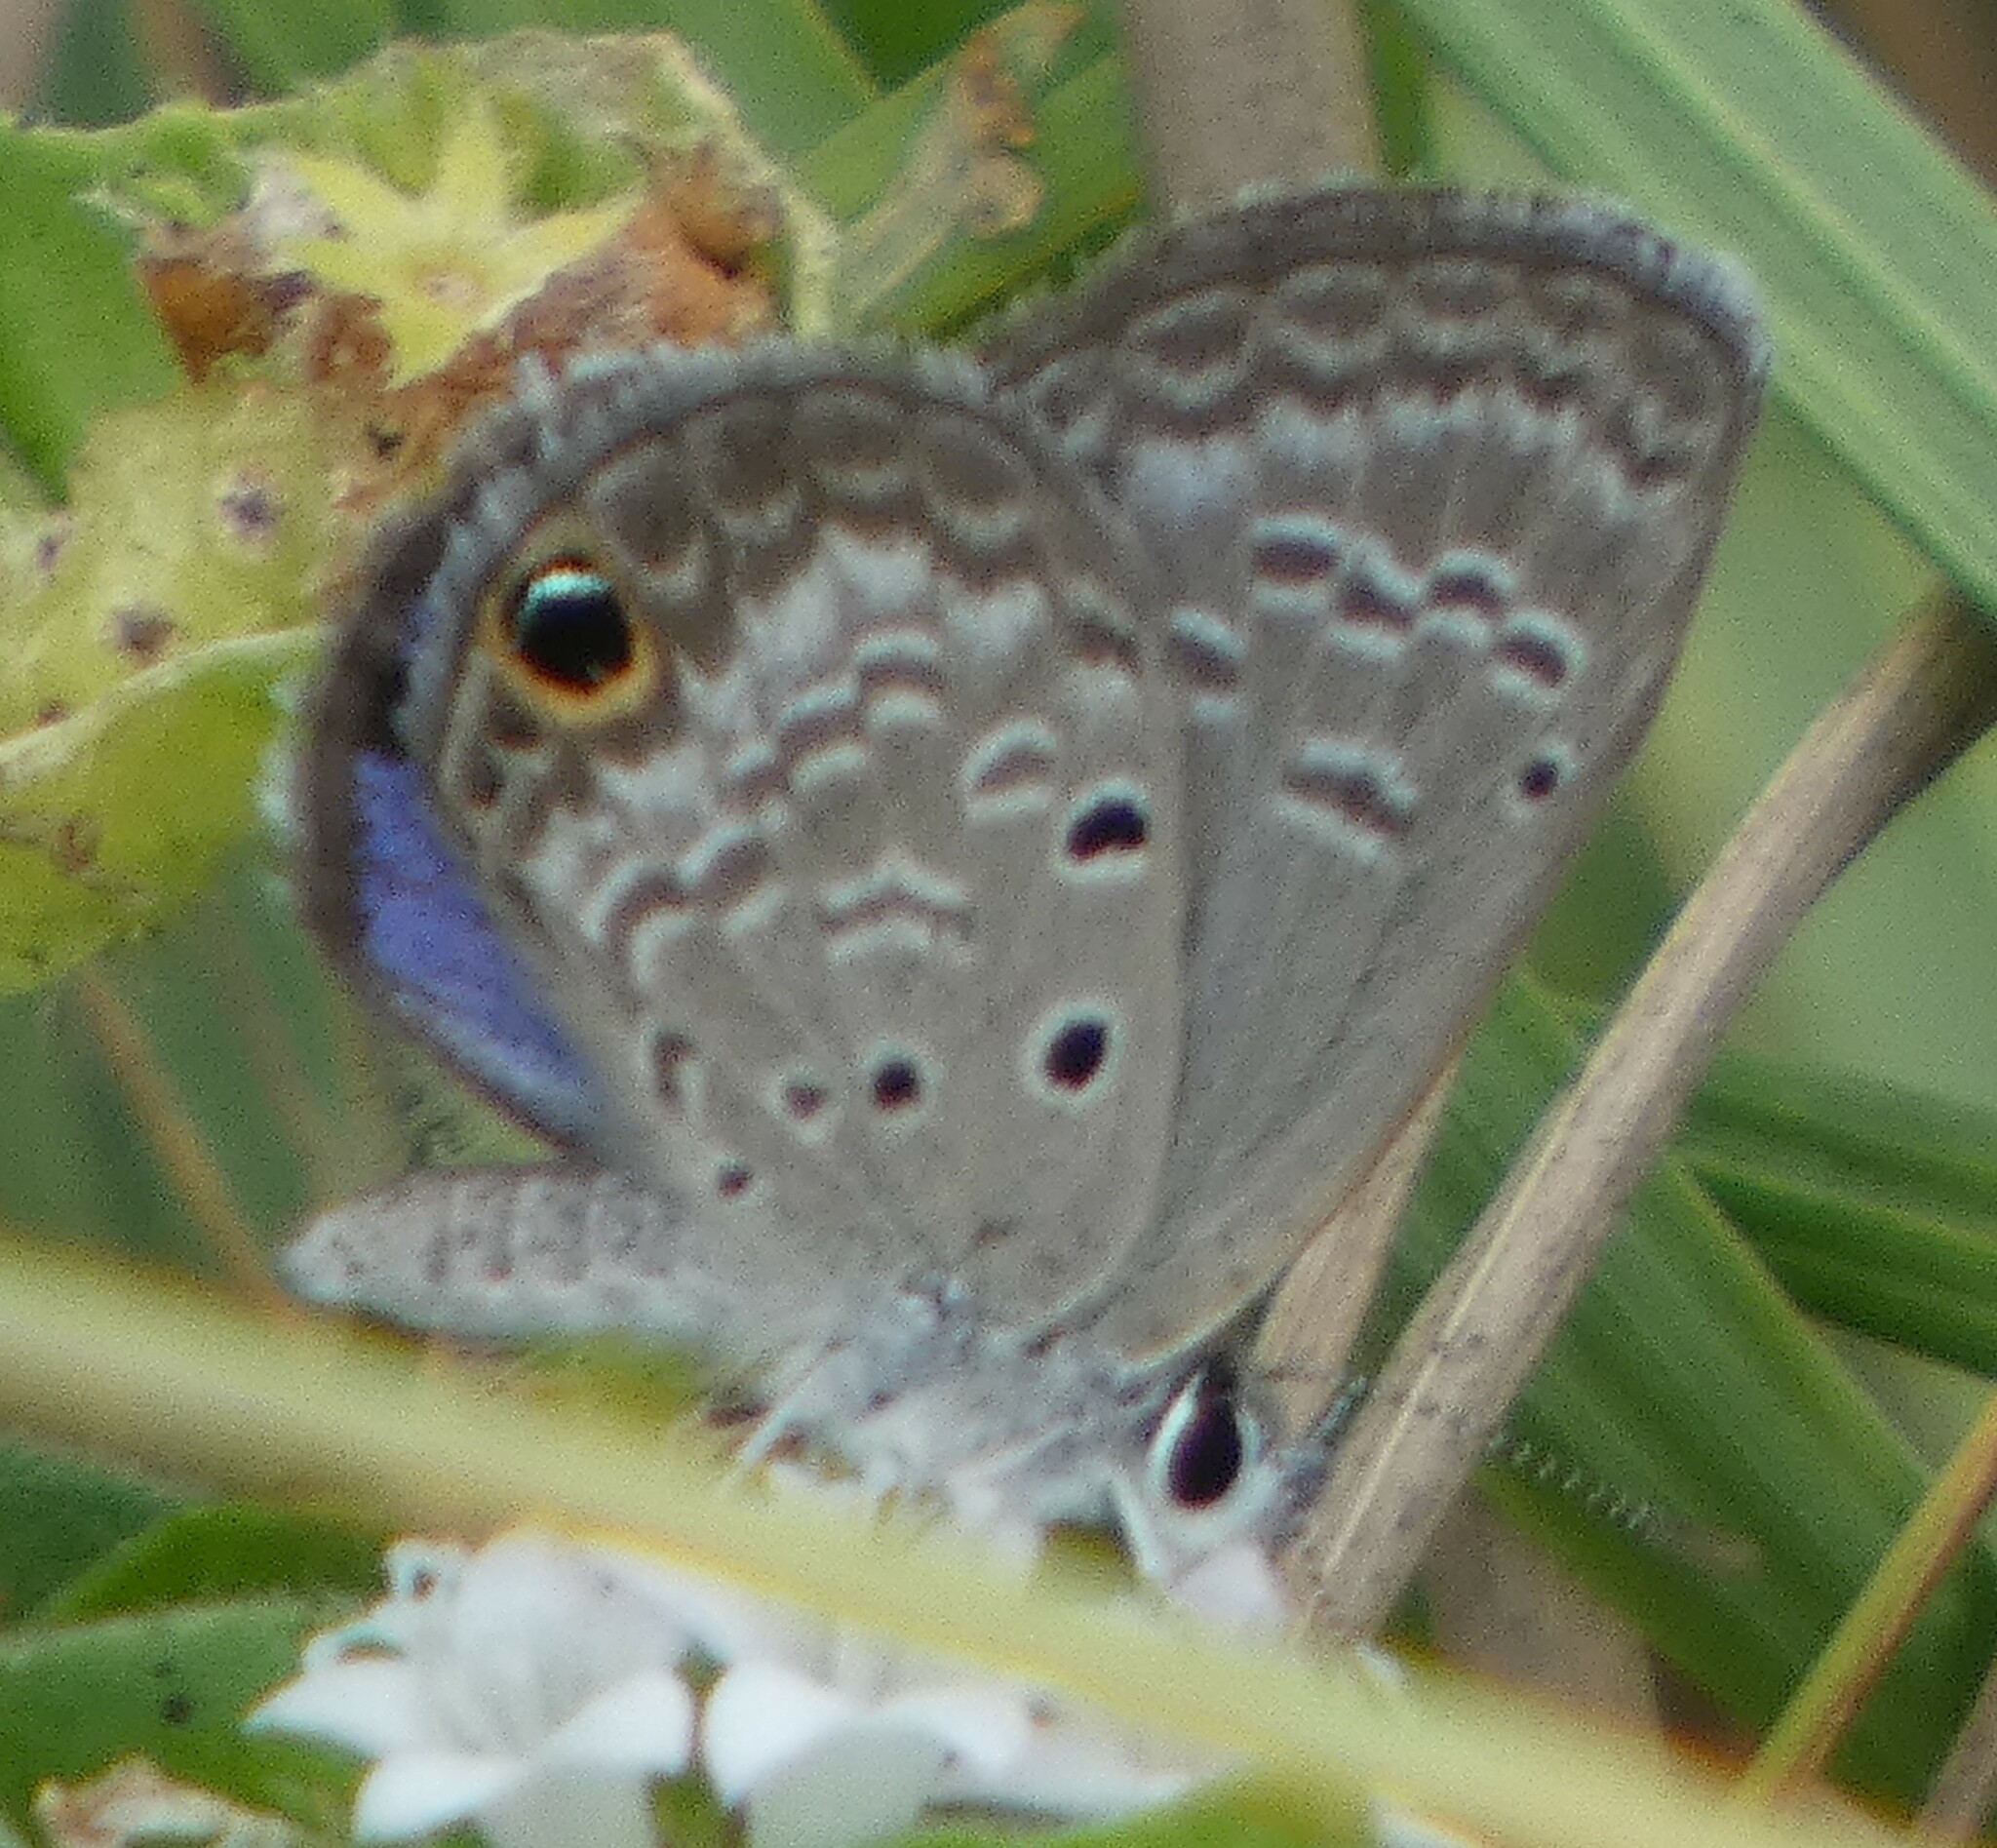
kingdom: Animalia
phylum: Arthropoda
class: Insecta
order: Lepidoptera
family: Lycaenidae
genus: Hemiargus
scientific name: Hemiargus ceraunus
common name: Ceraunus blue
